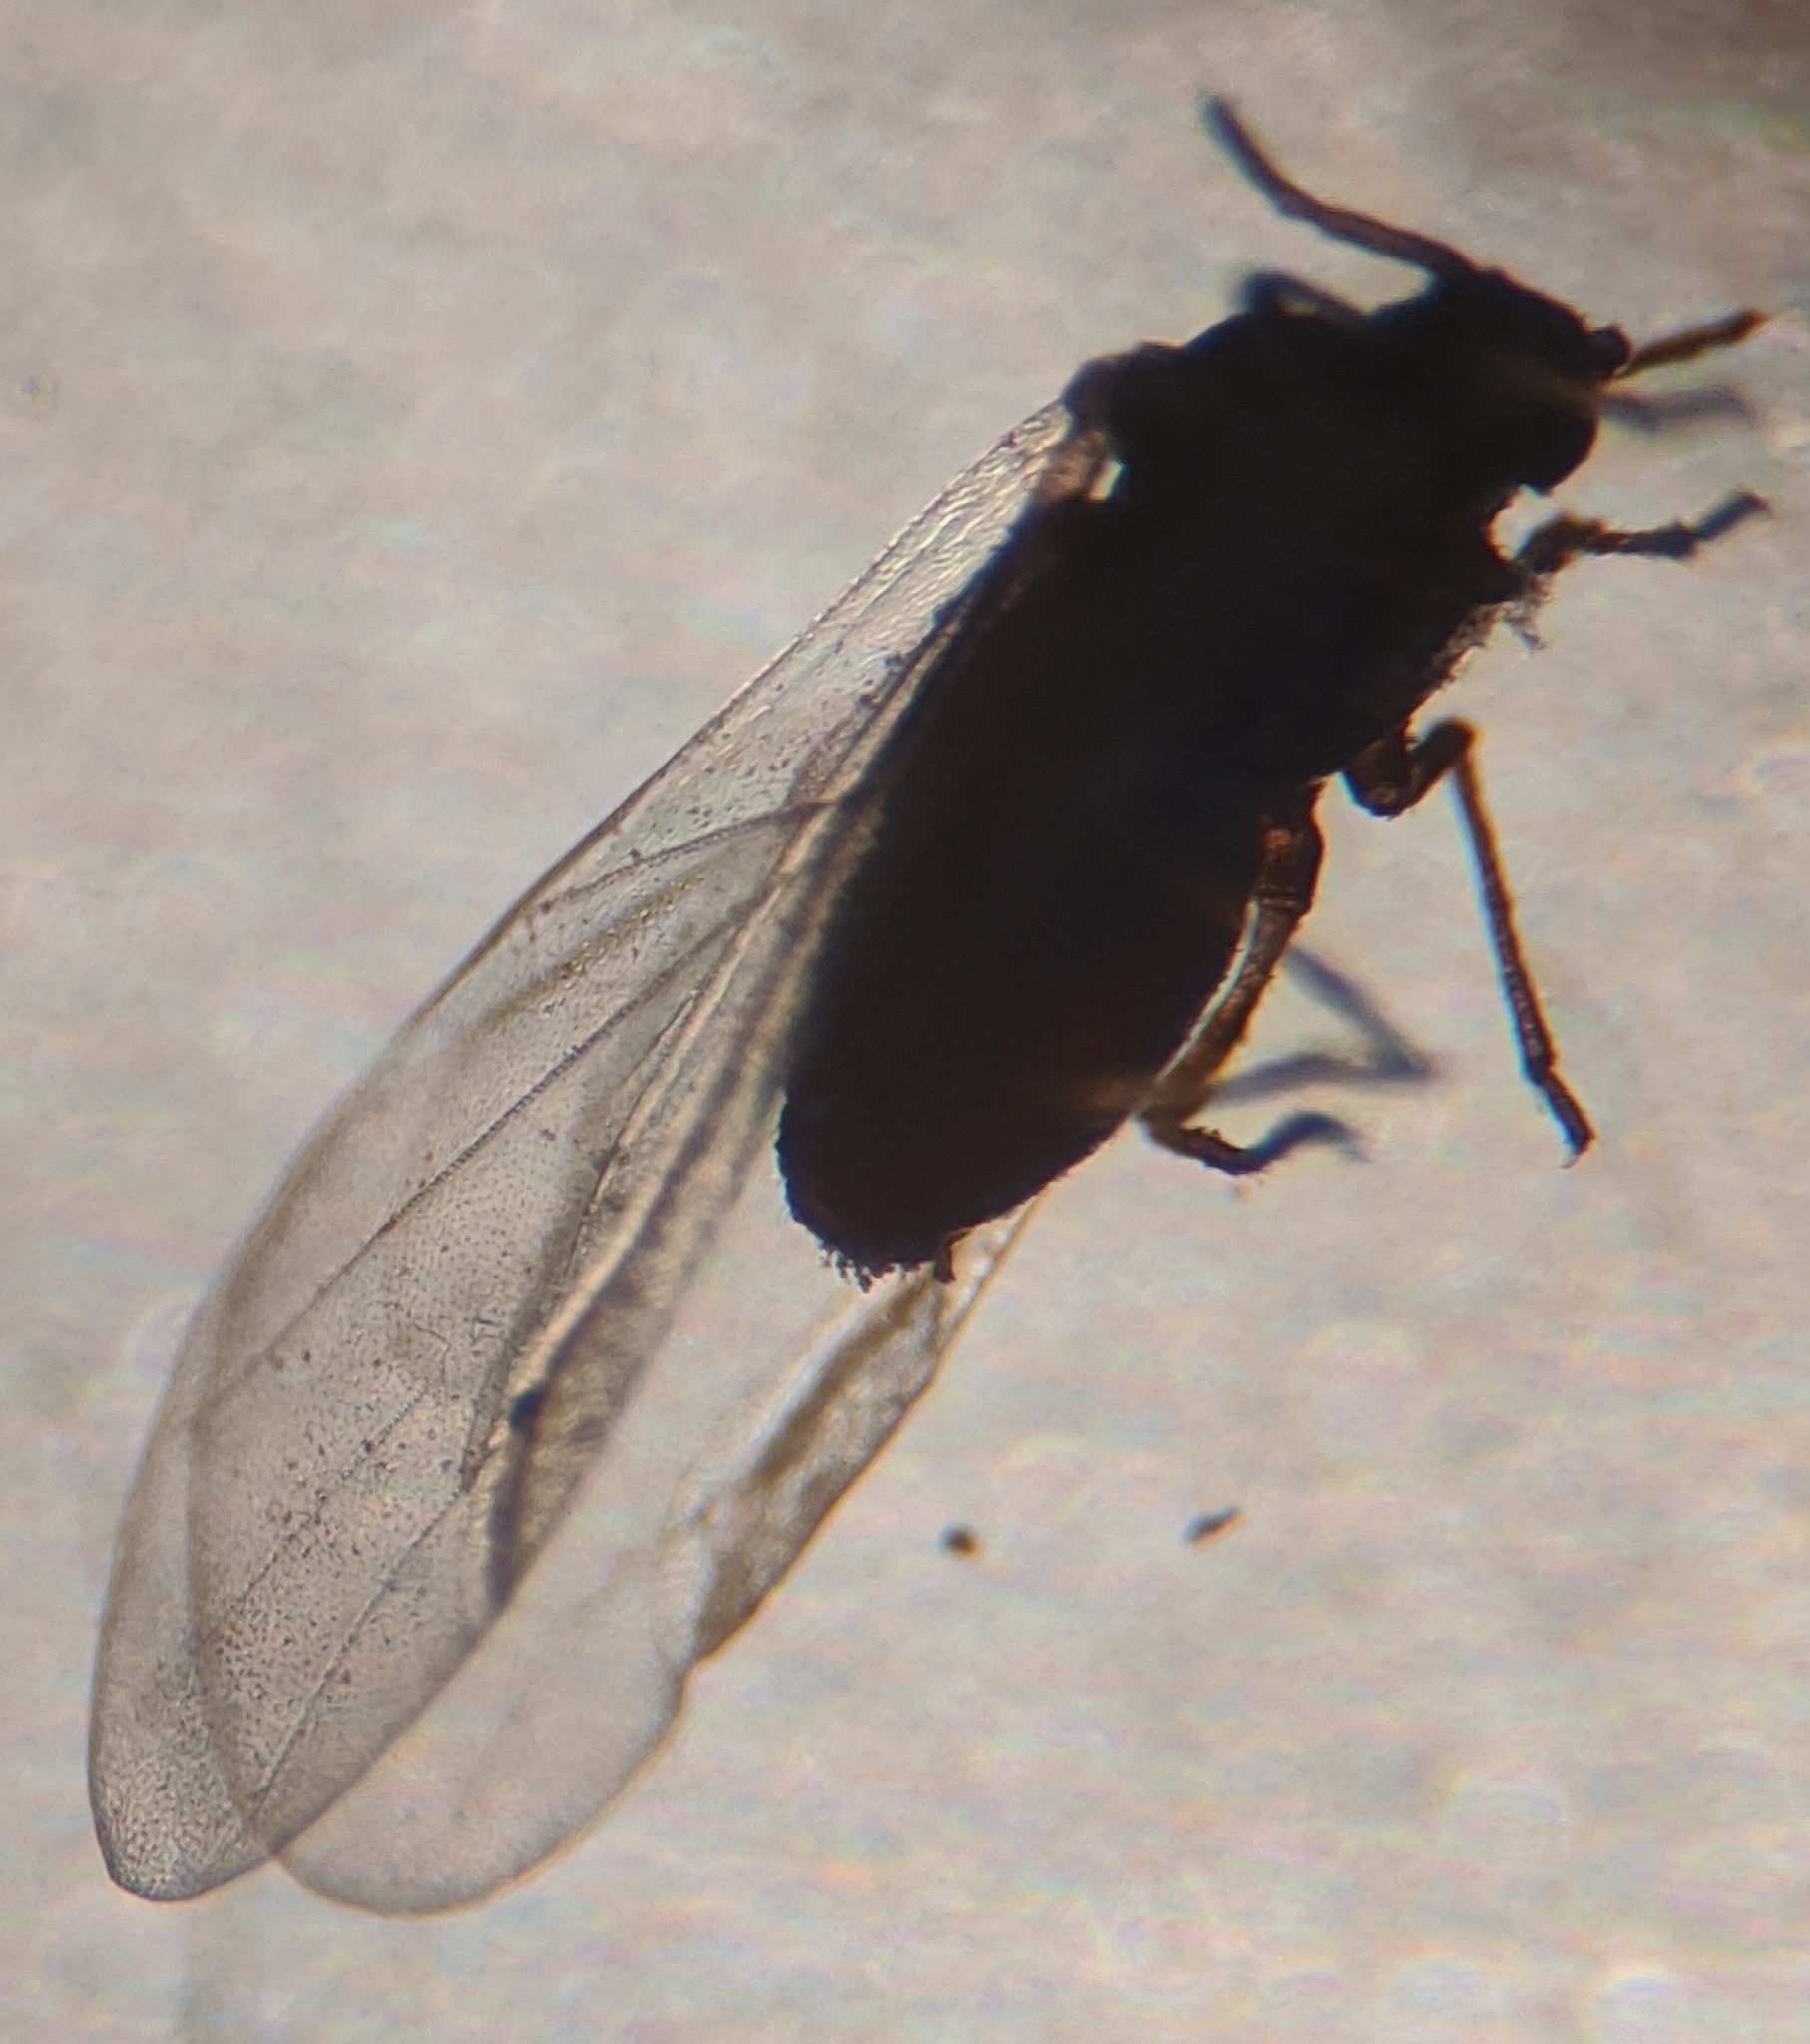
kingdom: Animalia
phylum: Arthropoda
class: Insecta
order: Hemiptera
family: Aphididae
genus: Tetraneura
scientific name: Tetraneura nigriabdominalis
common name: Aphid
